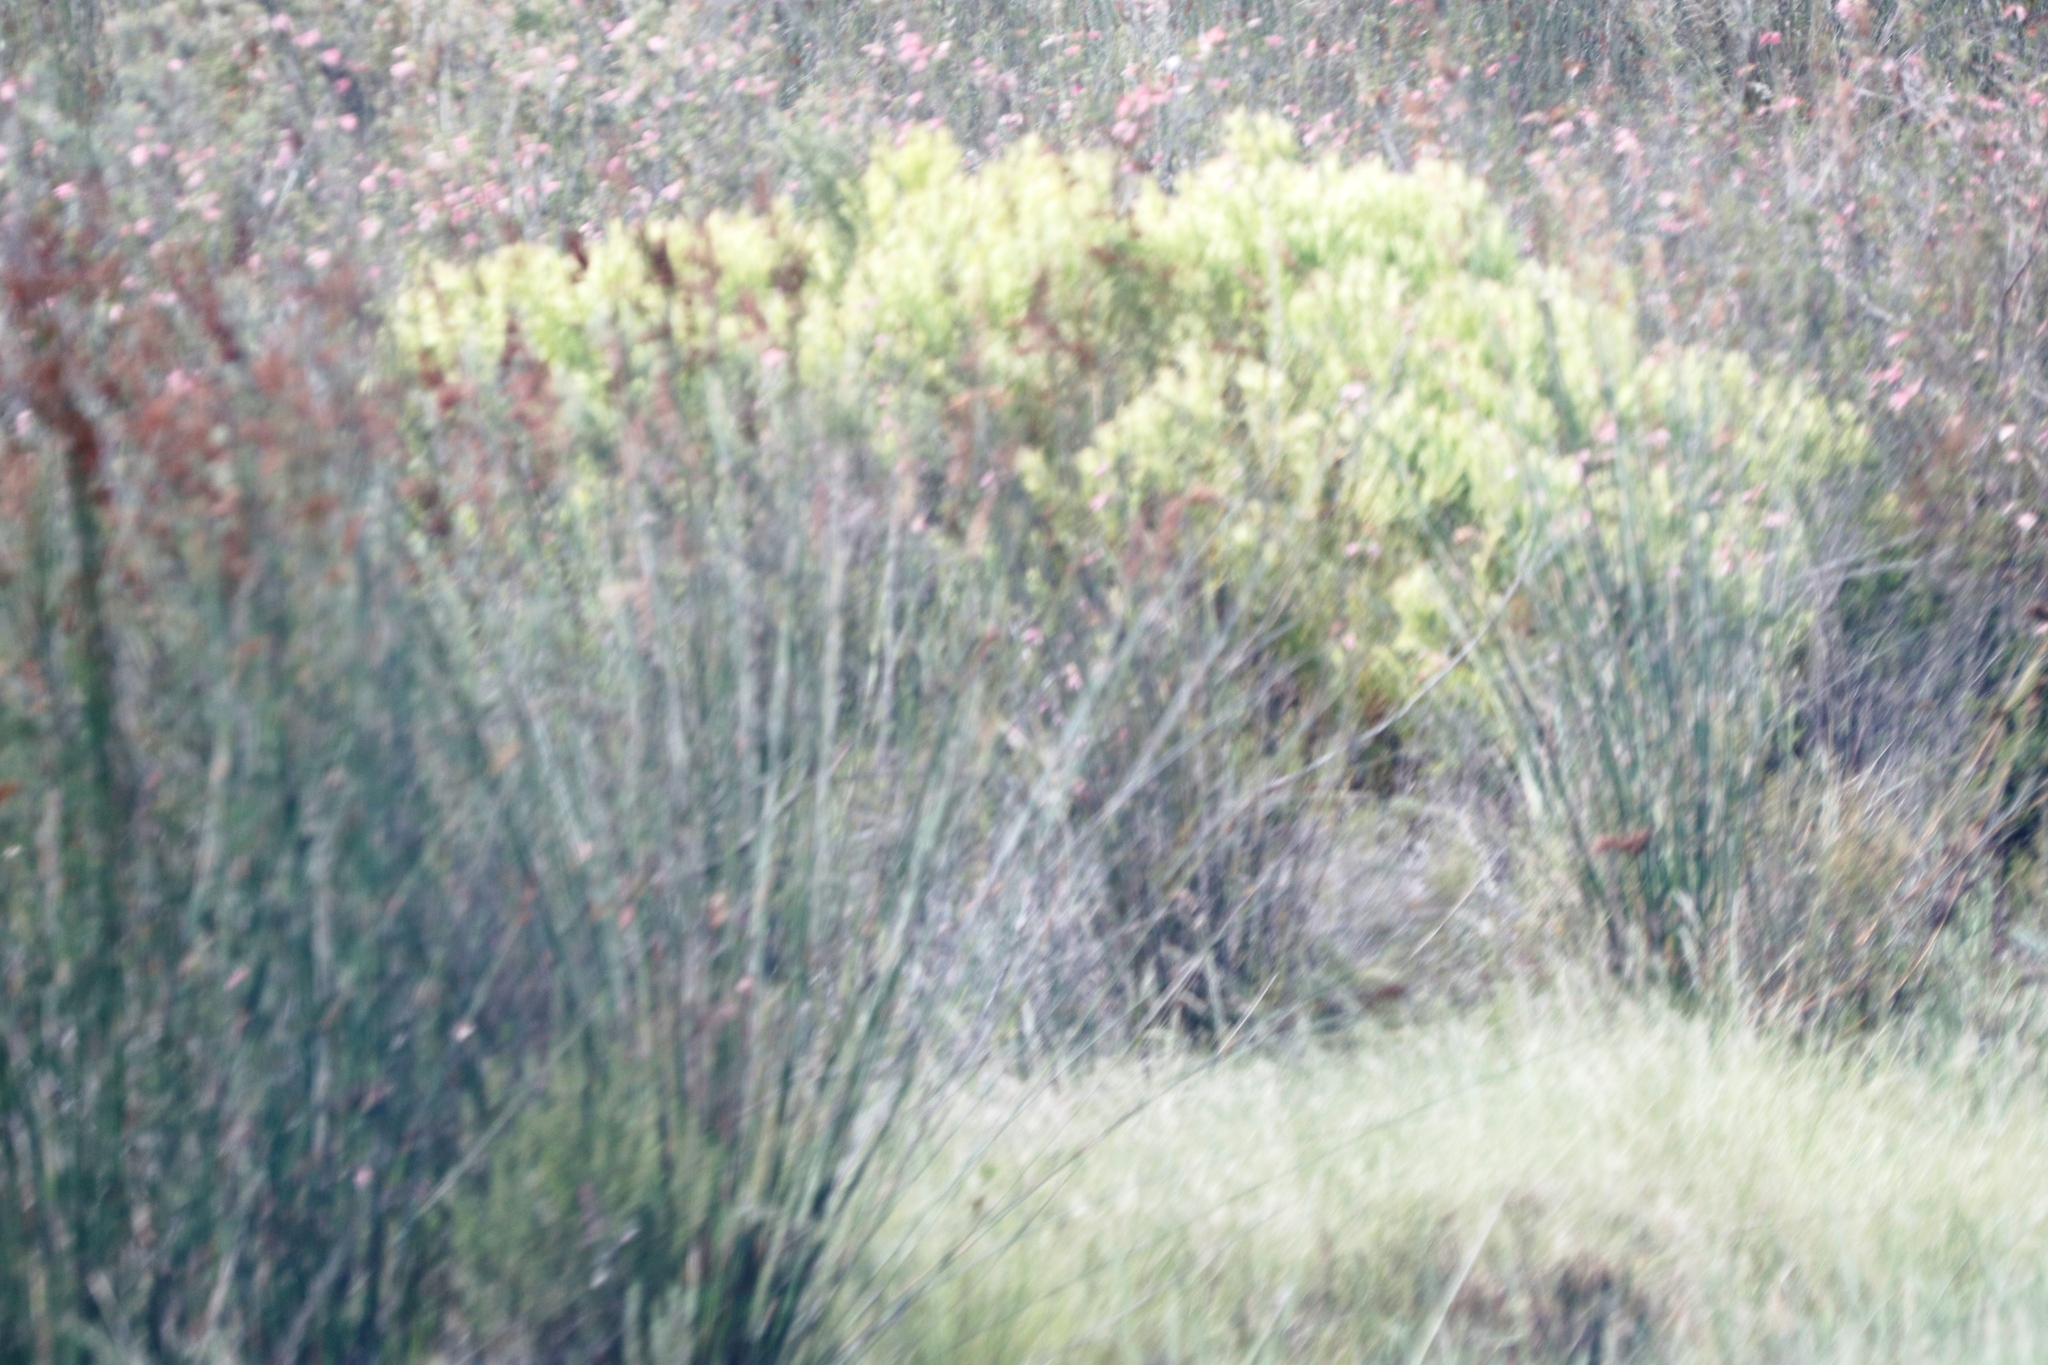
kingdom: Plantae
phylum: Tracheophyta
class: Magnoliopsida
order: Proteales
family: Proteaceae
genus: Leucadendron
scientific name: Leucadendron salignum
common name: Common sunshine conebush
